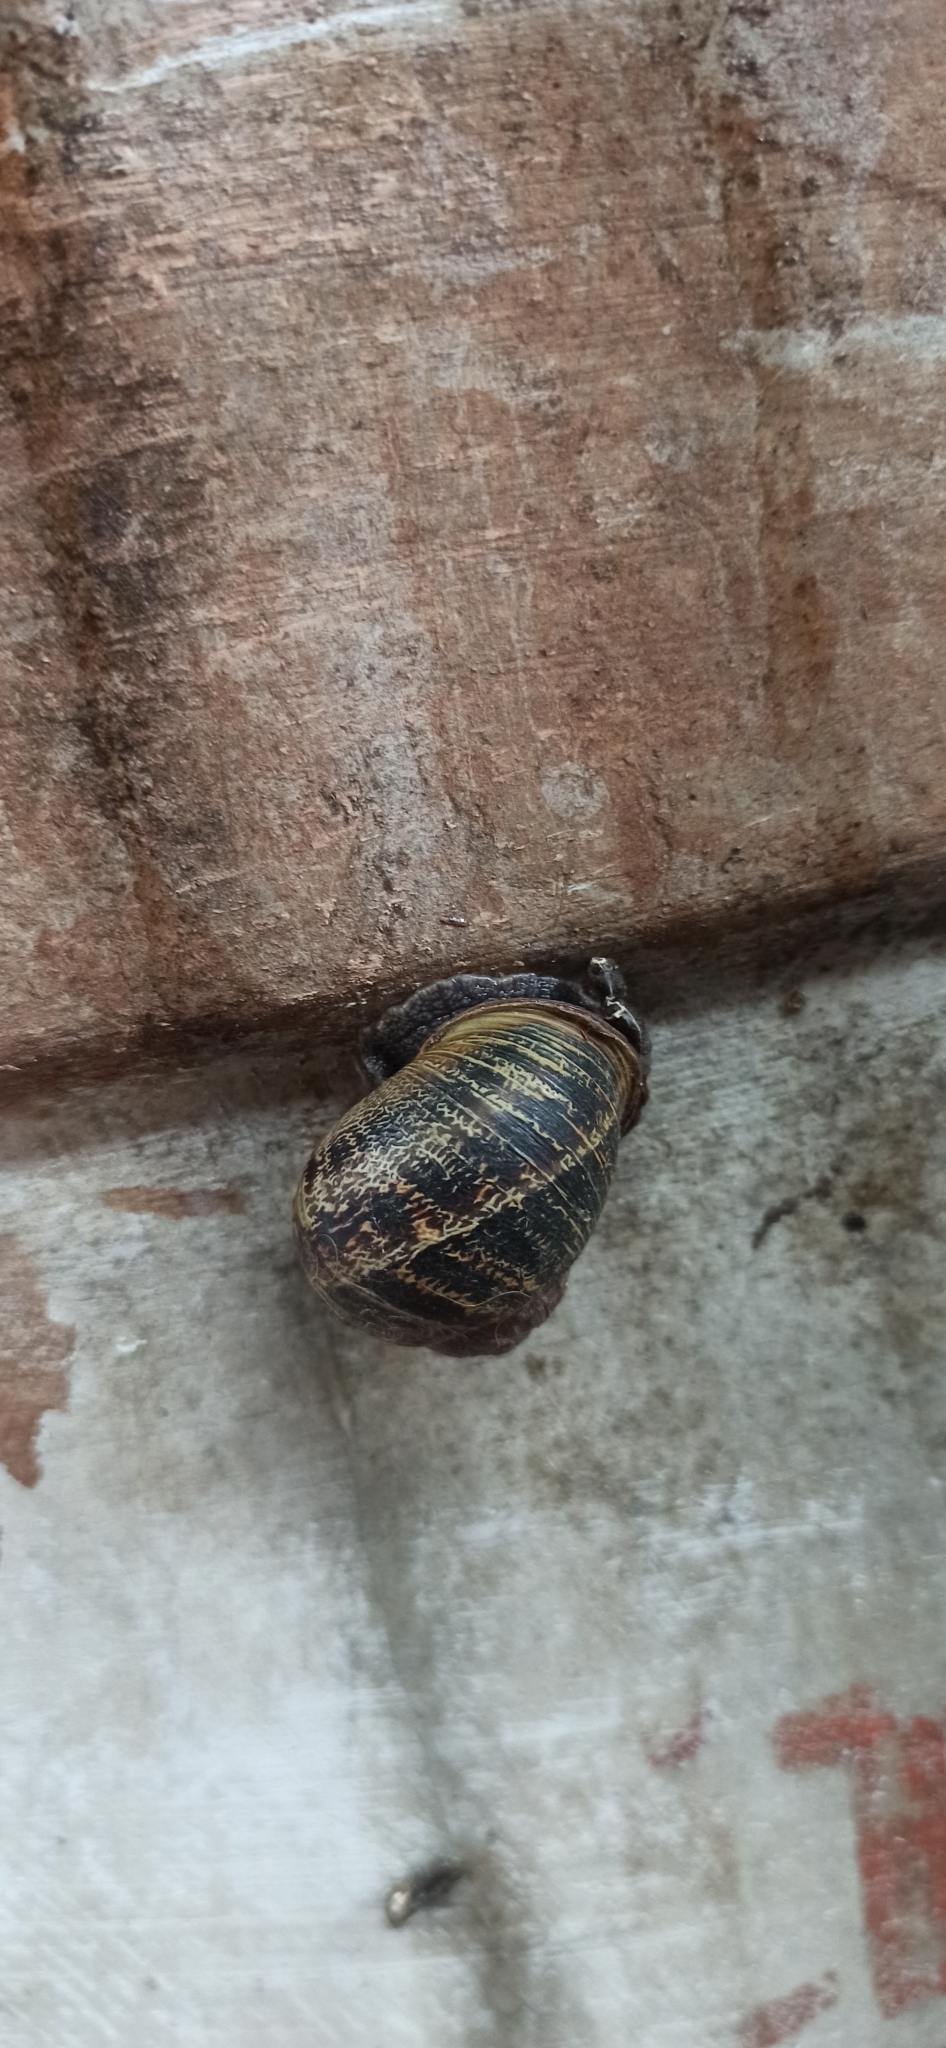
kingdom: Animalia
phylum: Mollusca
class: Gastropoda
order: Stylommatophora
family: Helicidae
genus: Cornu
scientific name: Cornu aspersum
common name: Brown garden snail
